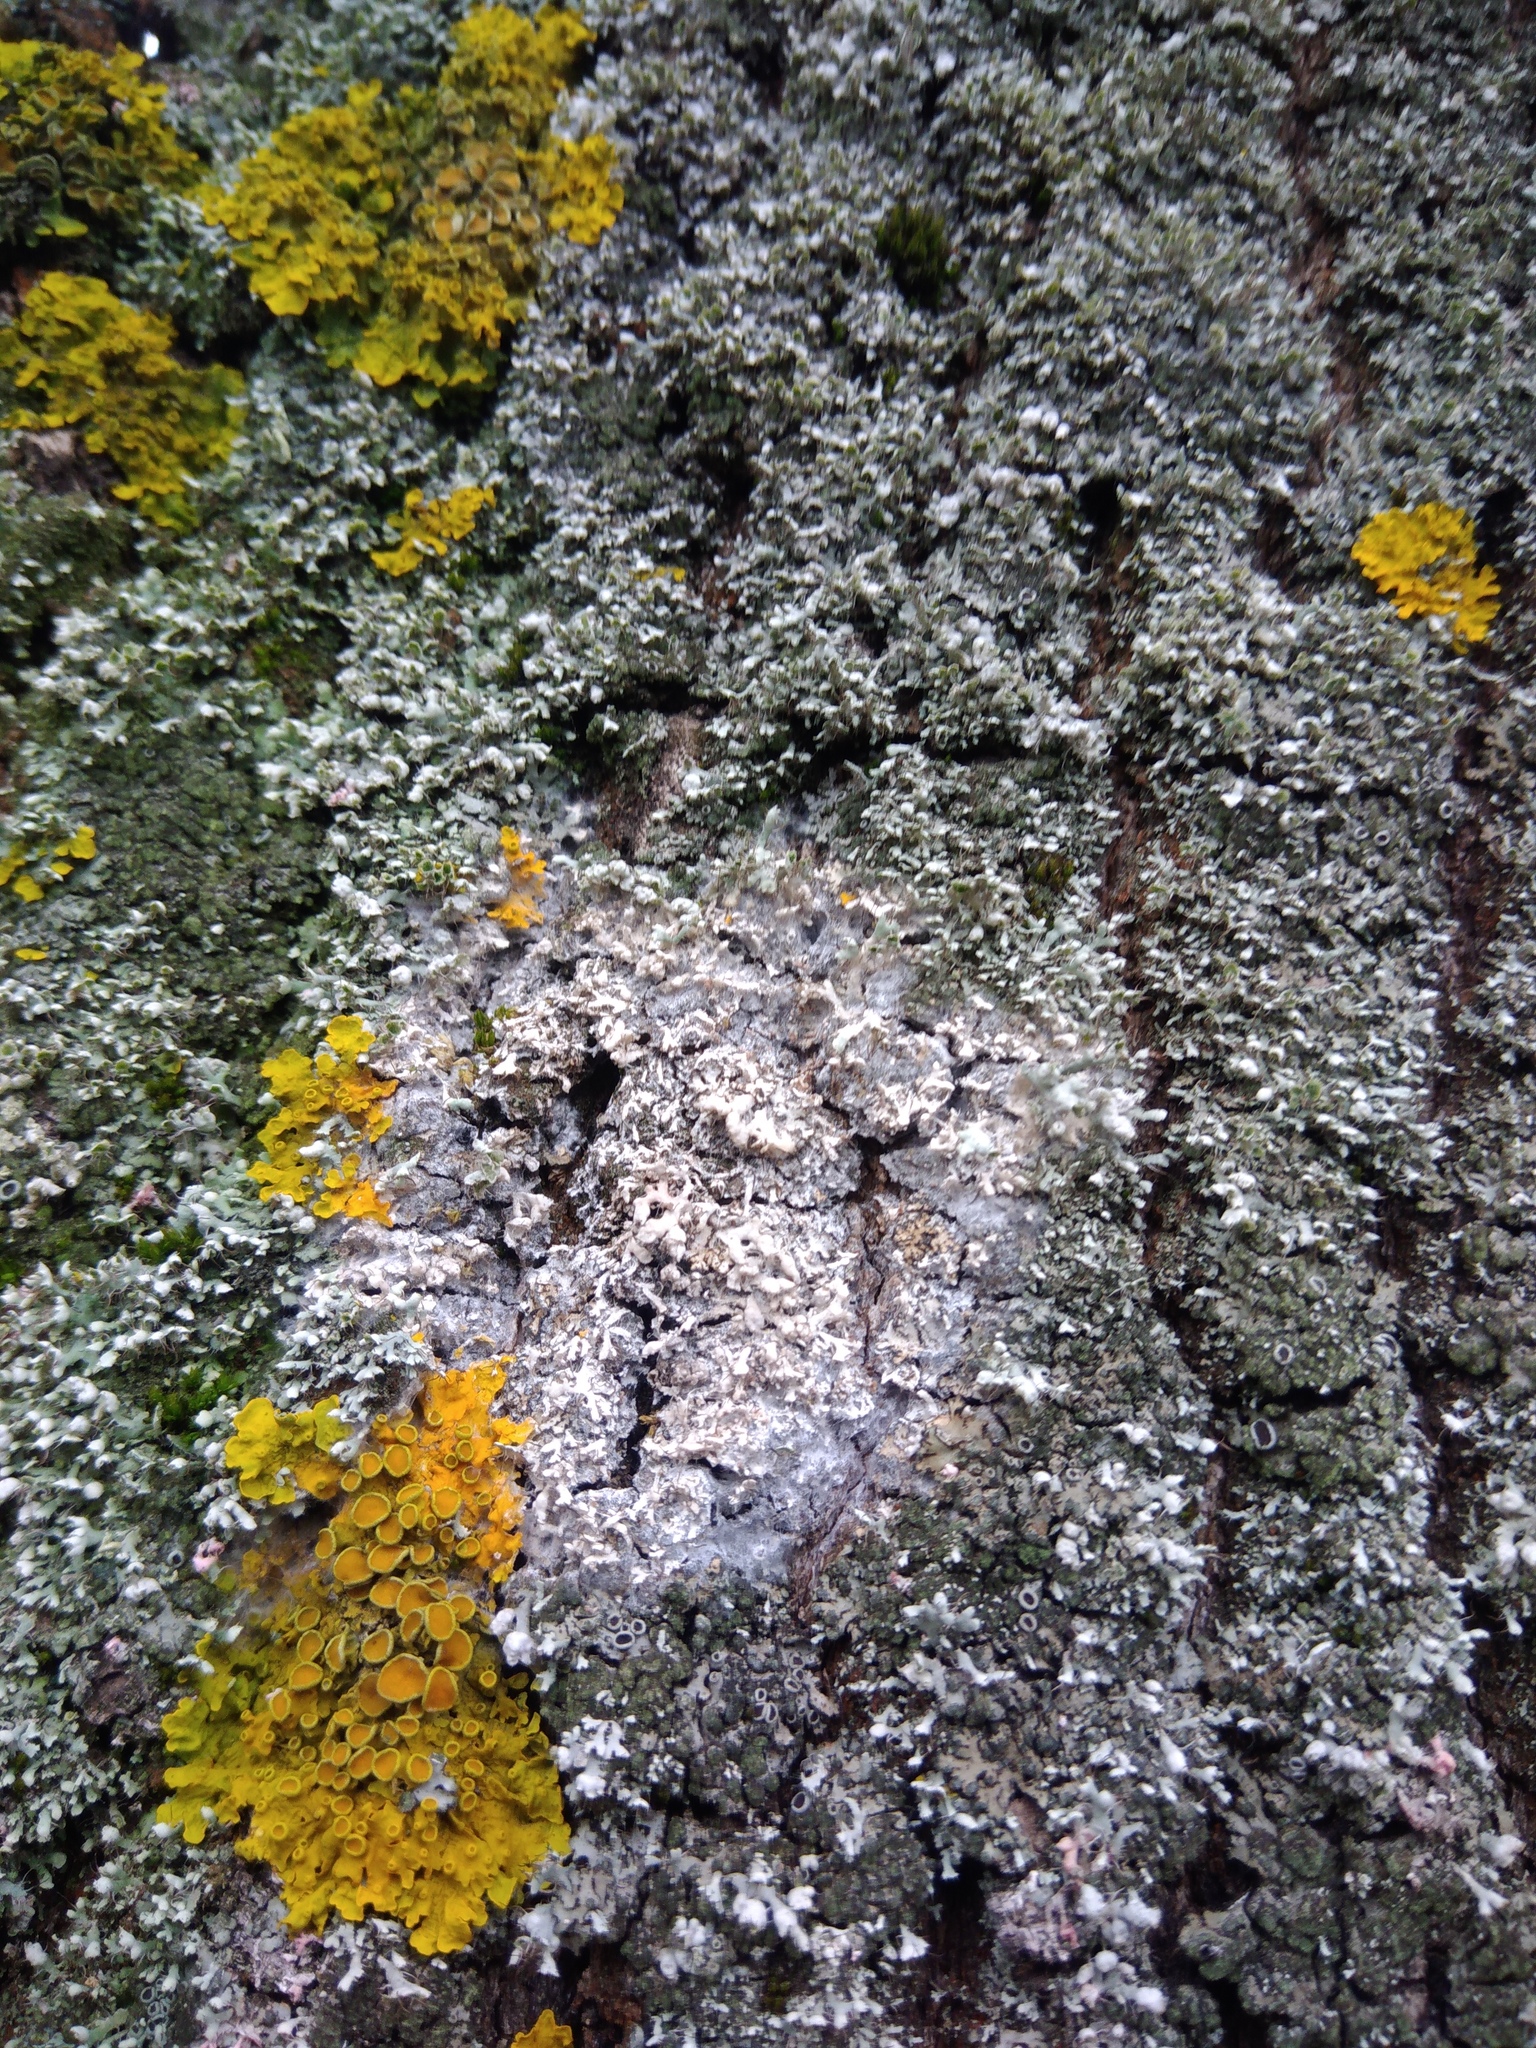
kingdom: Fungi
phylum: Basidiomycota
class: Agaricomycetes
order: Atheliales
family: Atheliaceae
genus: Athelia
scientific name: Athelia arachnoidea
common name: Candelabra duster
